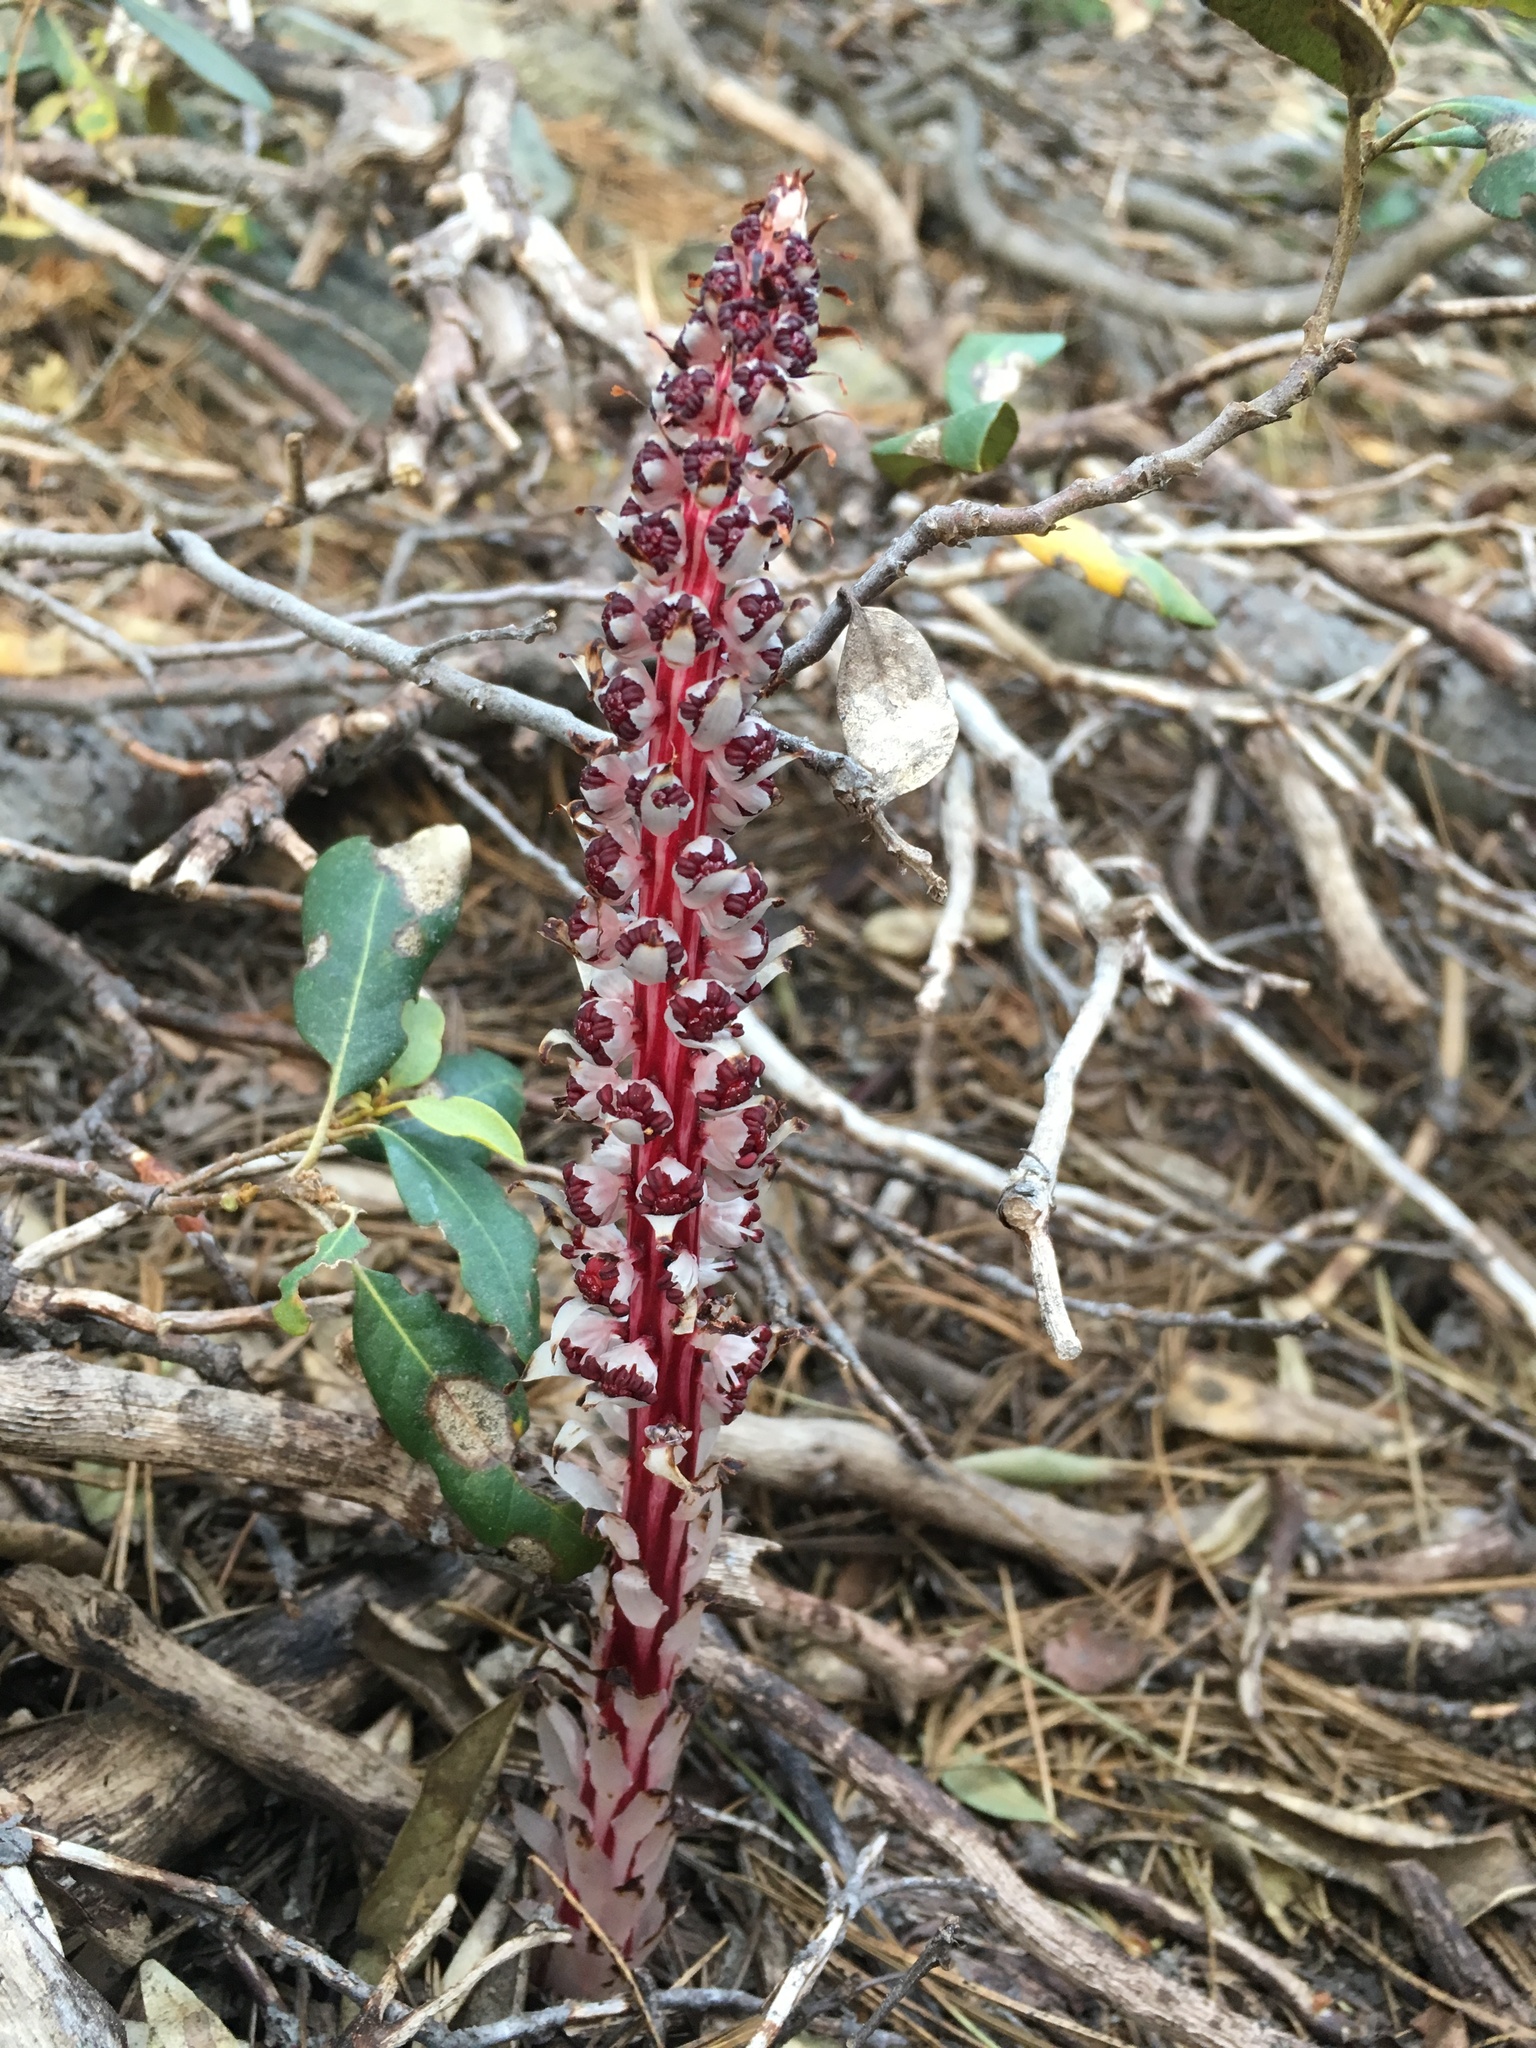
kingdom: Plantae
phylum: Tracheophyta
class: Magnoliopsida
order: Ericales
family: Ericaceae
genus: Allotropa
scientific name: Allotropa virgata
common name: Candy-striped allotropa
